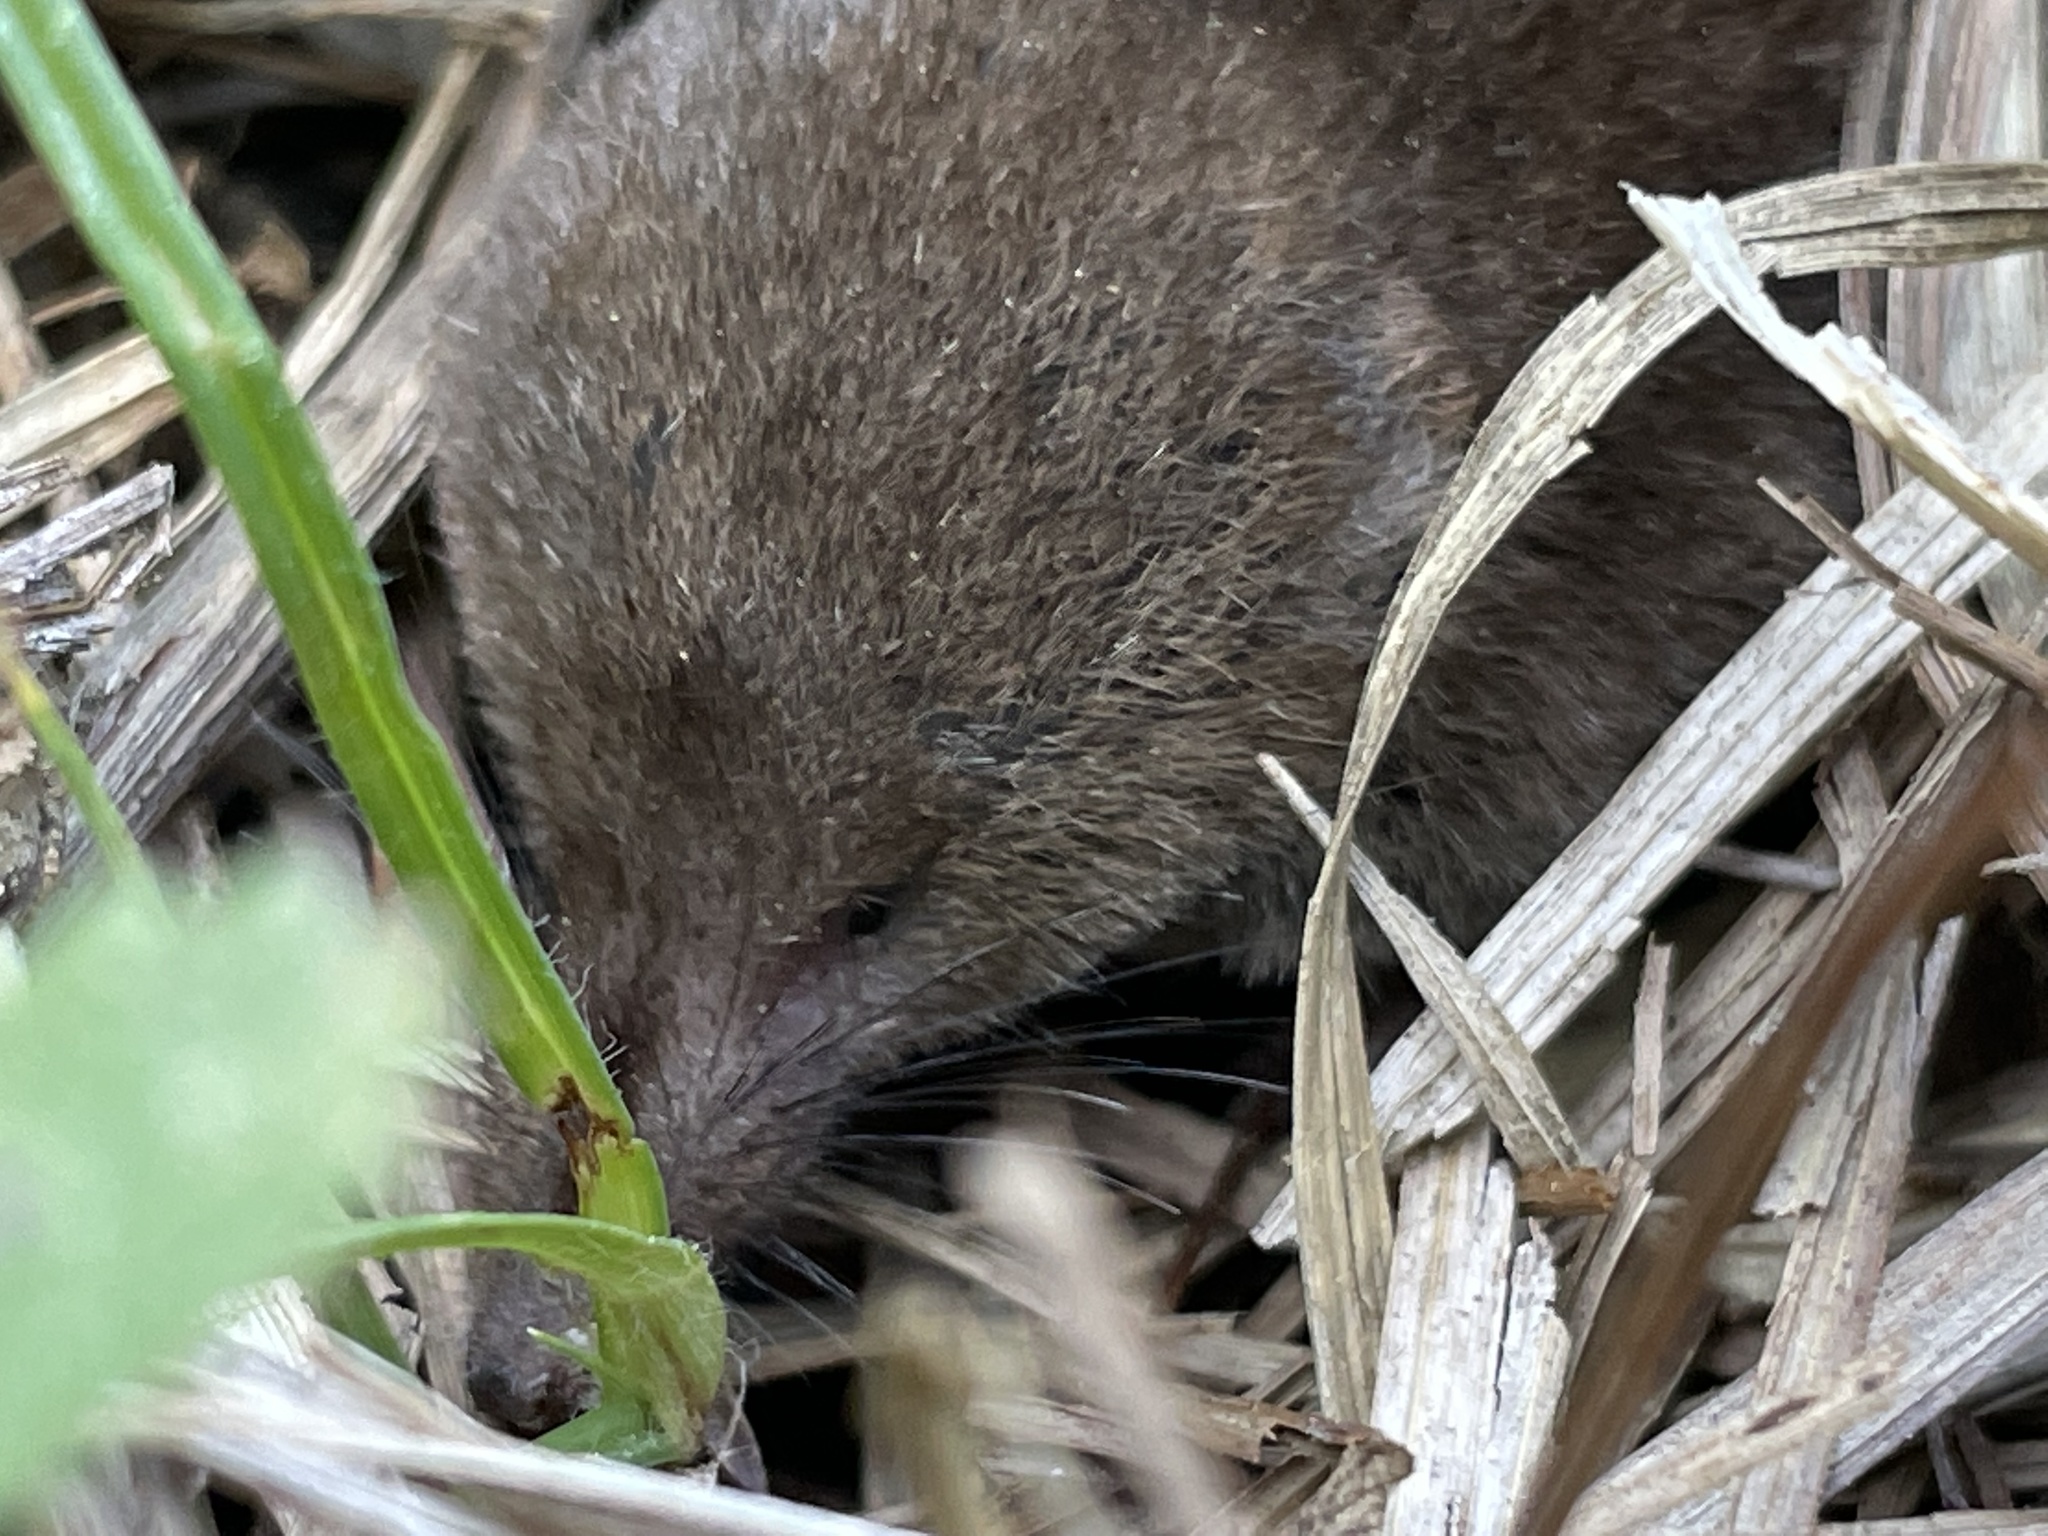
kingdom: Animalia
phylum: Chordata
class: Mammalia
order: Soricomorpha
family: Soricidae
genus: Sorex
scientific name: Sorex minutus
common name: Eurasian pygmy shrew
